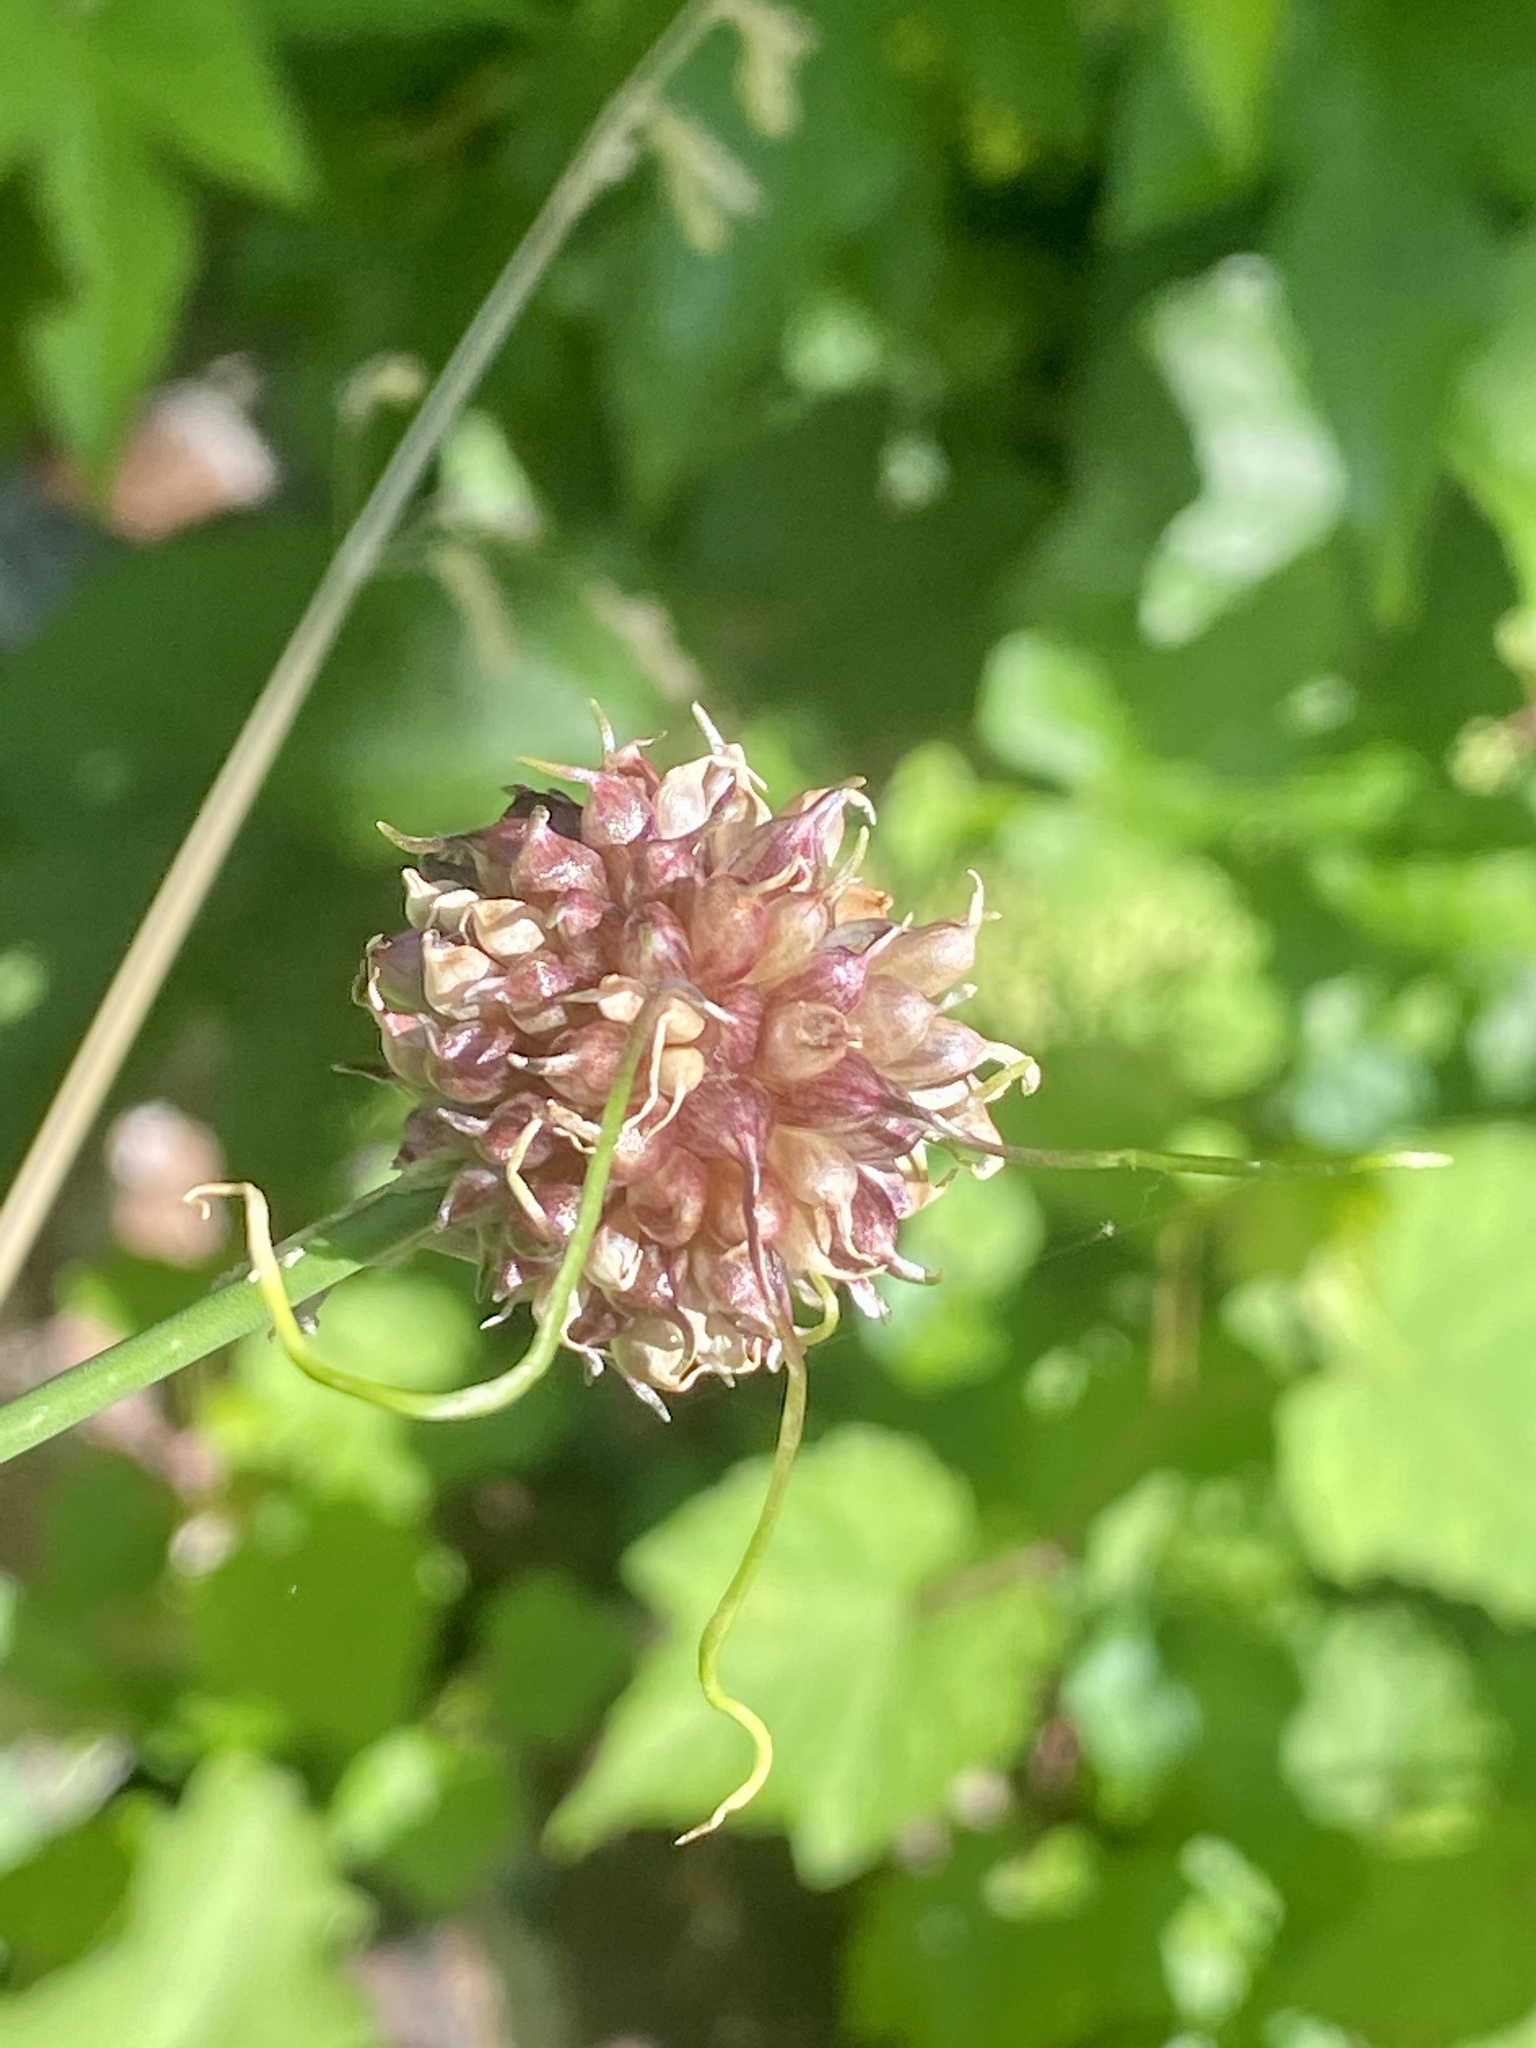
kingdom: Plantae
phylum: Tracheophyta
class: Liliopsida
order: Asparagales
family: Amaryllidaceae
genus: Allium
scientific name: Allium vineale
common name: Crow garlic
